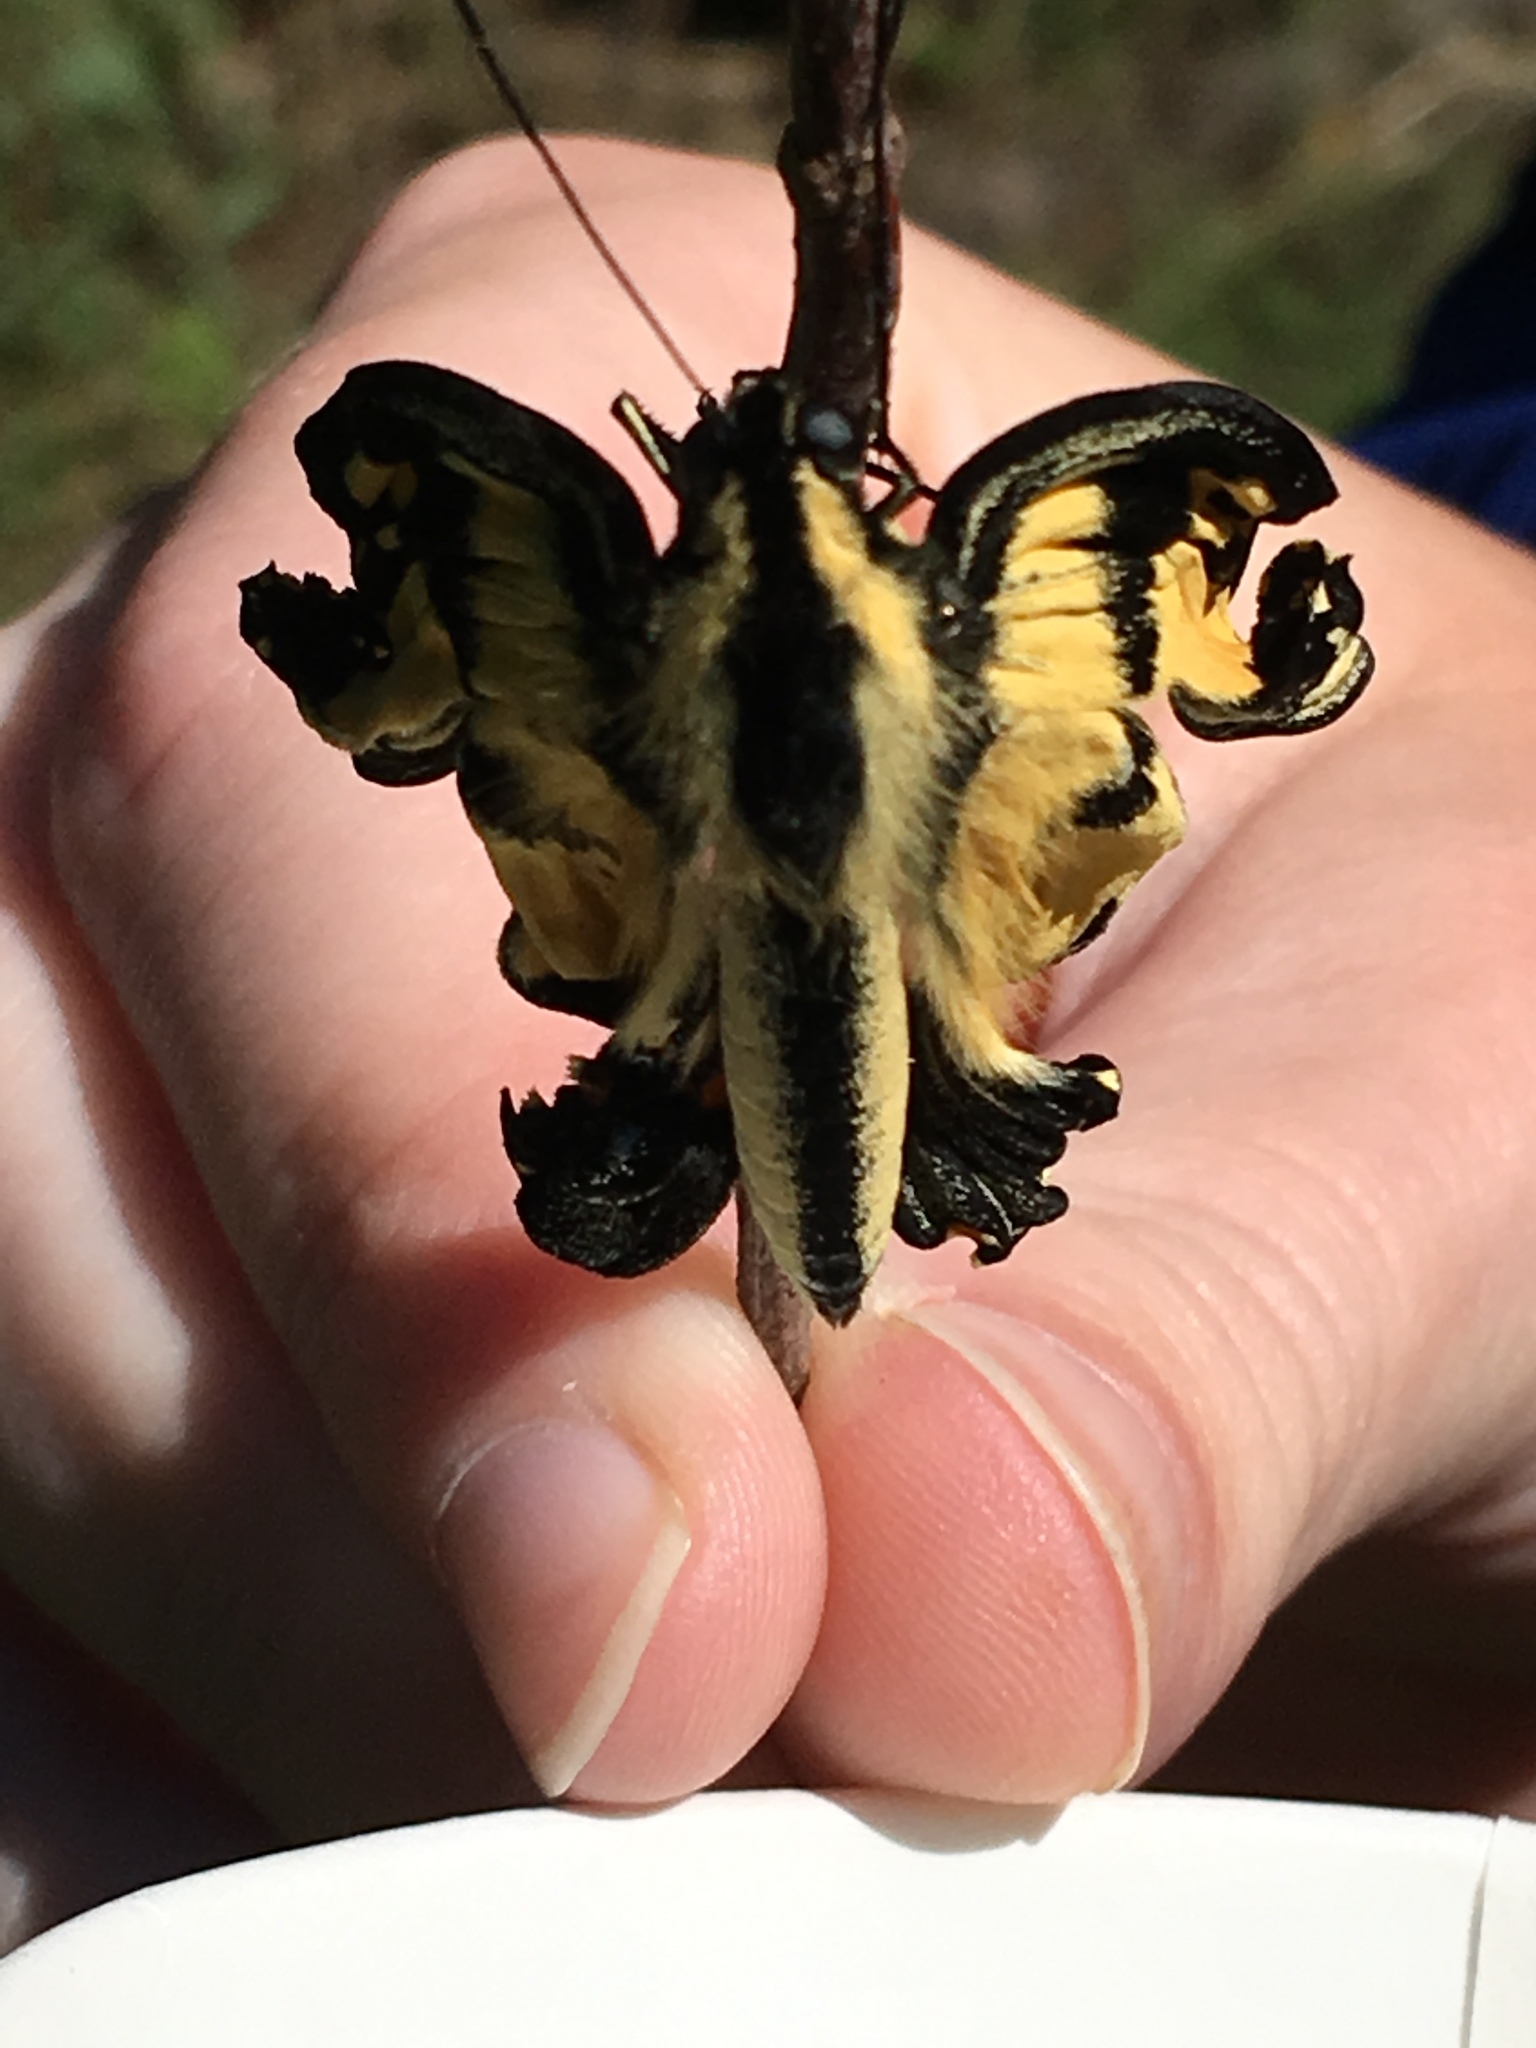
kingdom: Animalia
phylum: Arthropoda
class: Insecta
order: Lepidoptera
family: Papilionidae
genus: Papilio
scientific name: Papilio glaucus
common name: Tiger swallowtail
